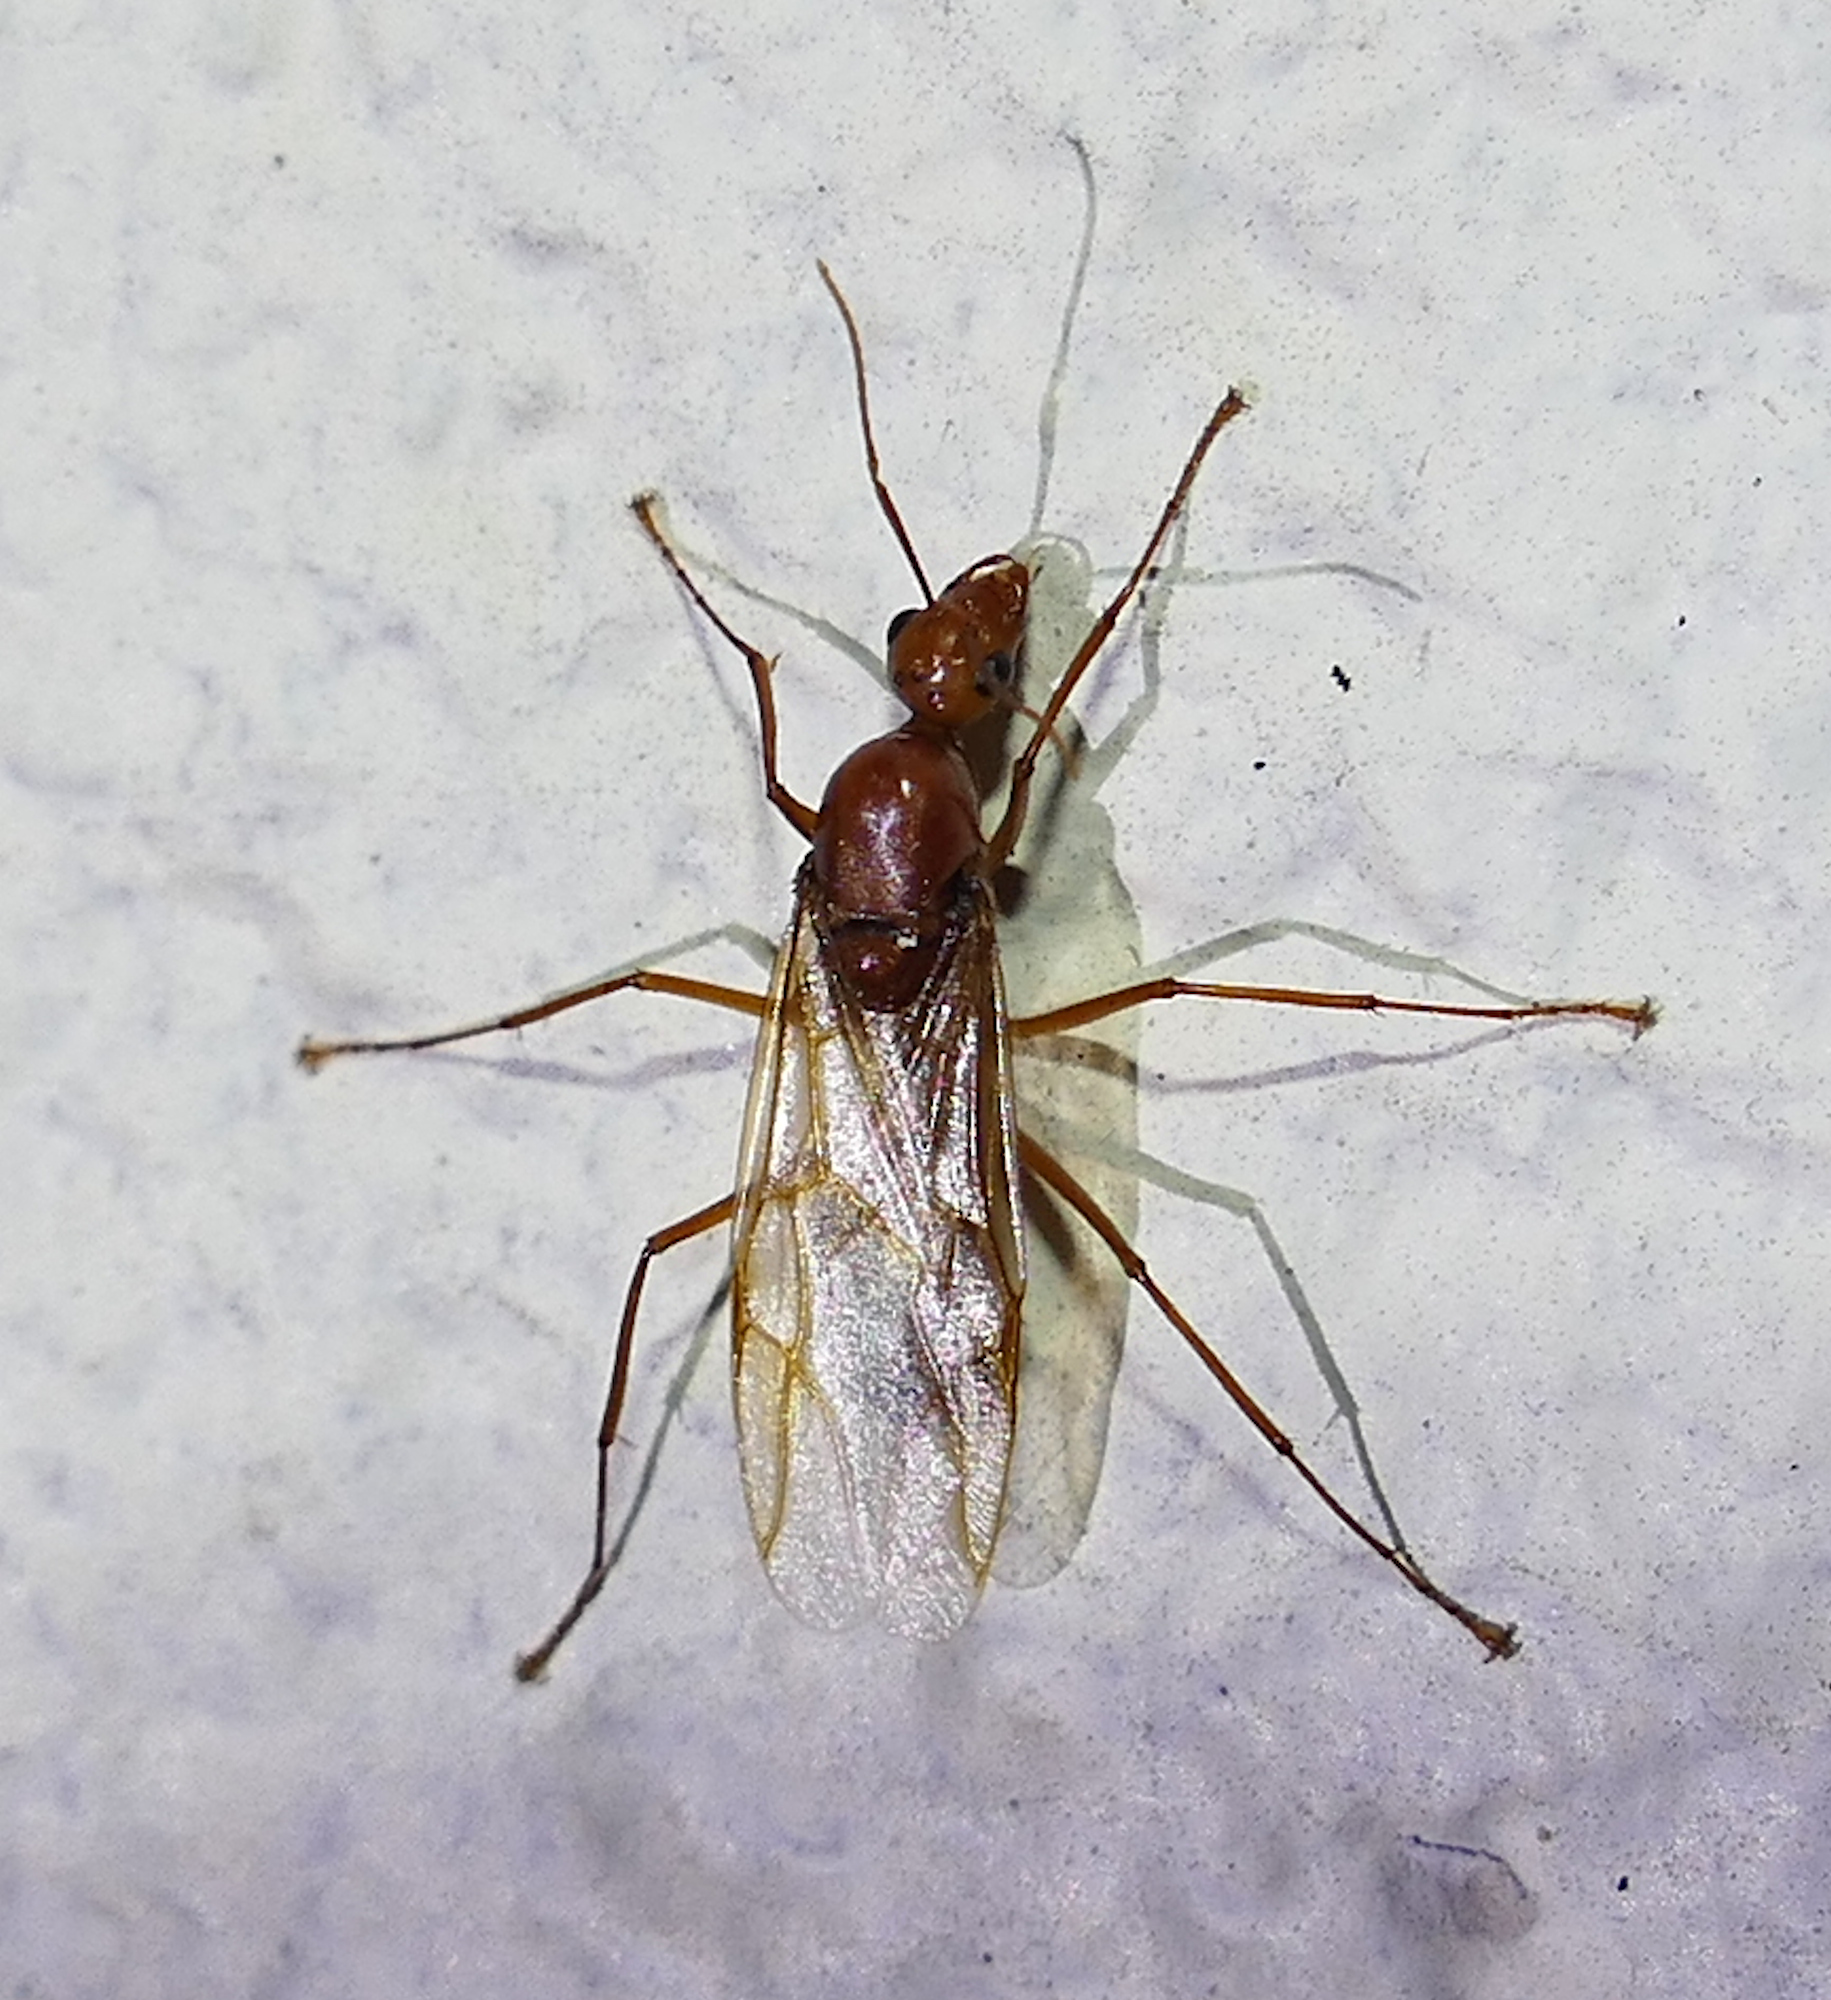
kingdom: Animalia
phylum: Arthropoda
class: Insecta
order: Hymenoptera
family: Formicidae
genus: Camponotus
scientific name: Camponotus castaneus
